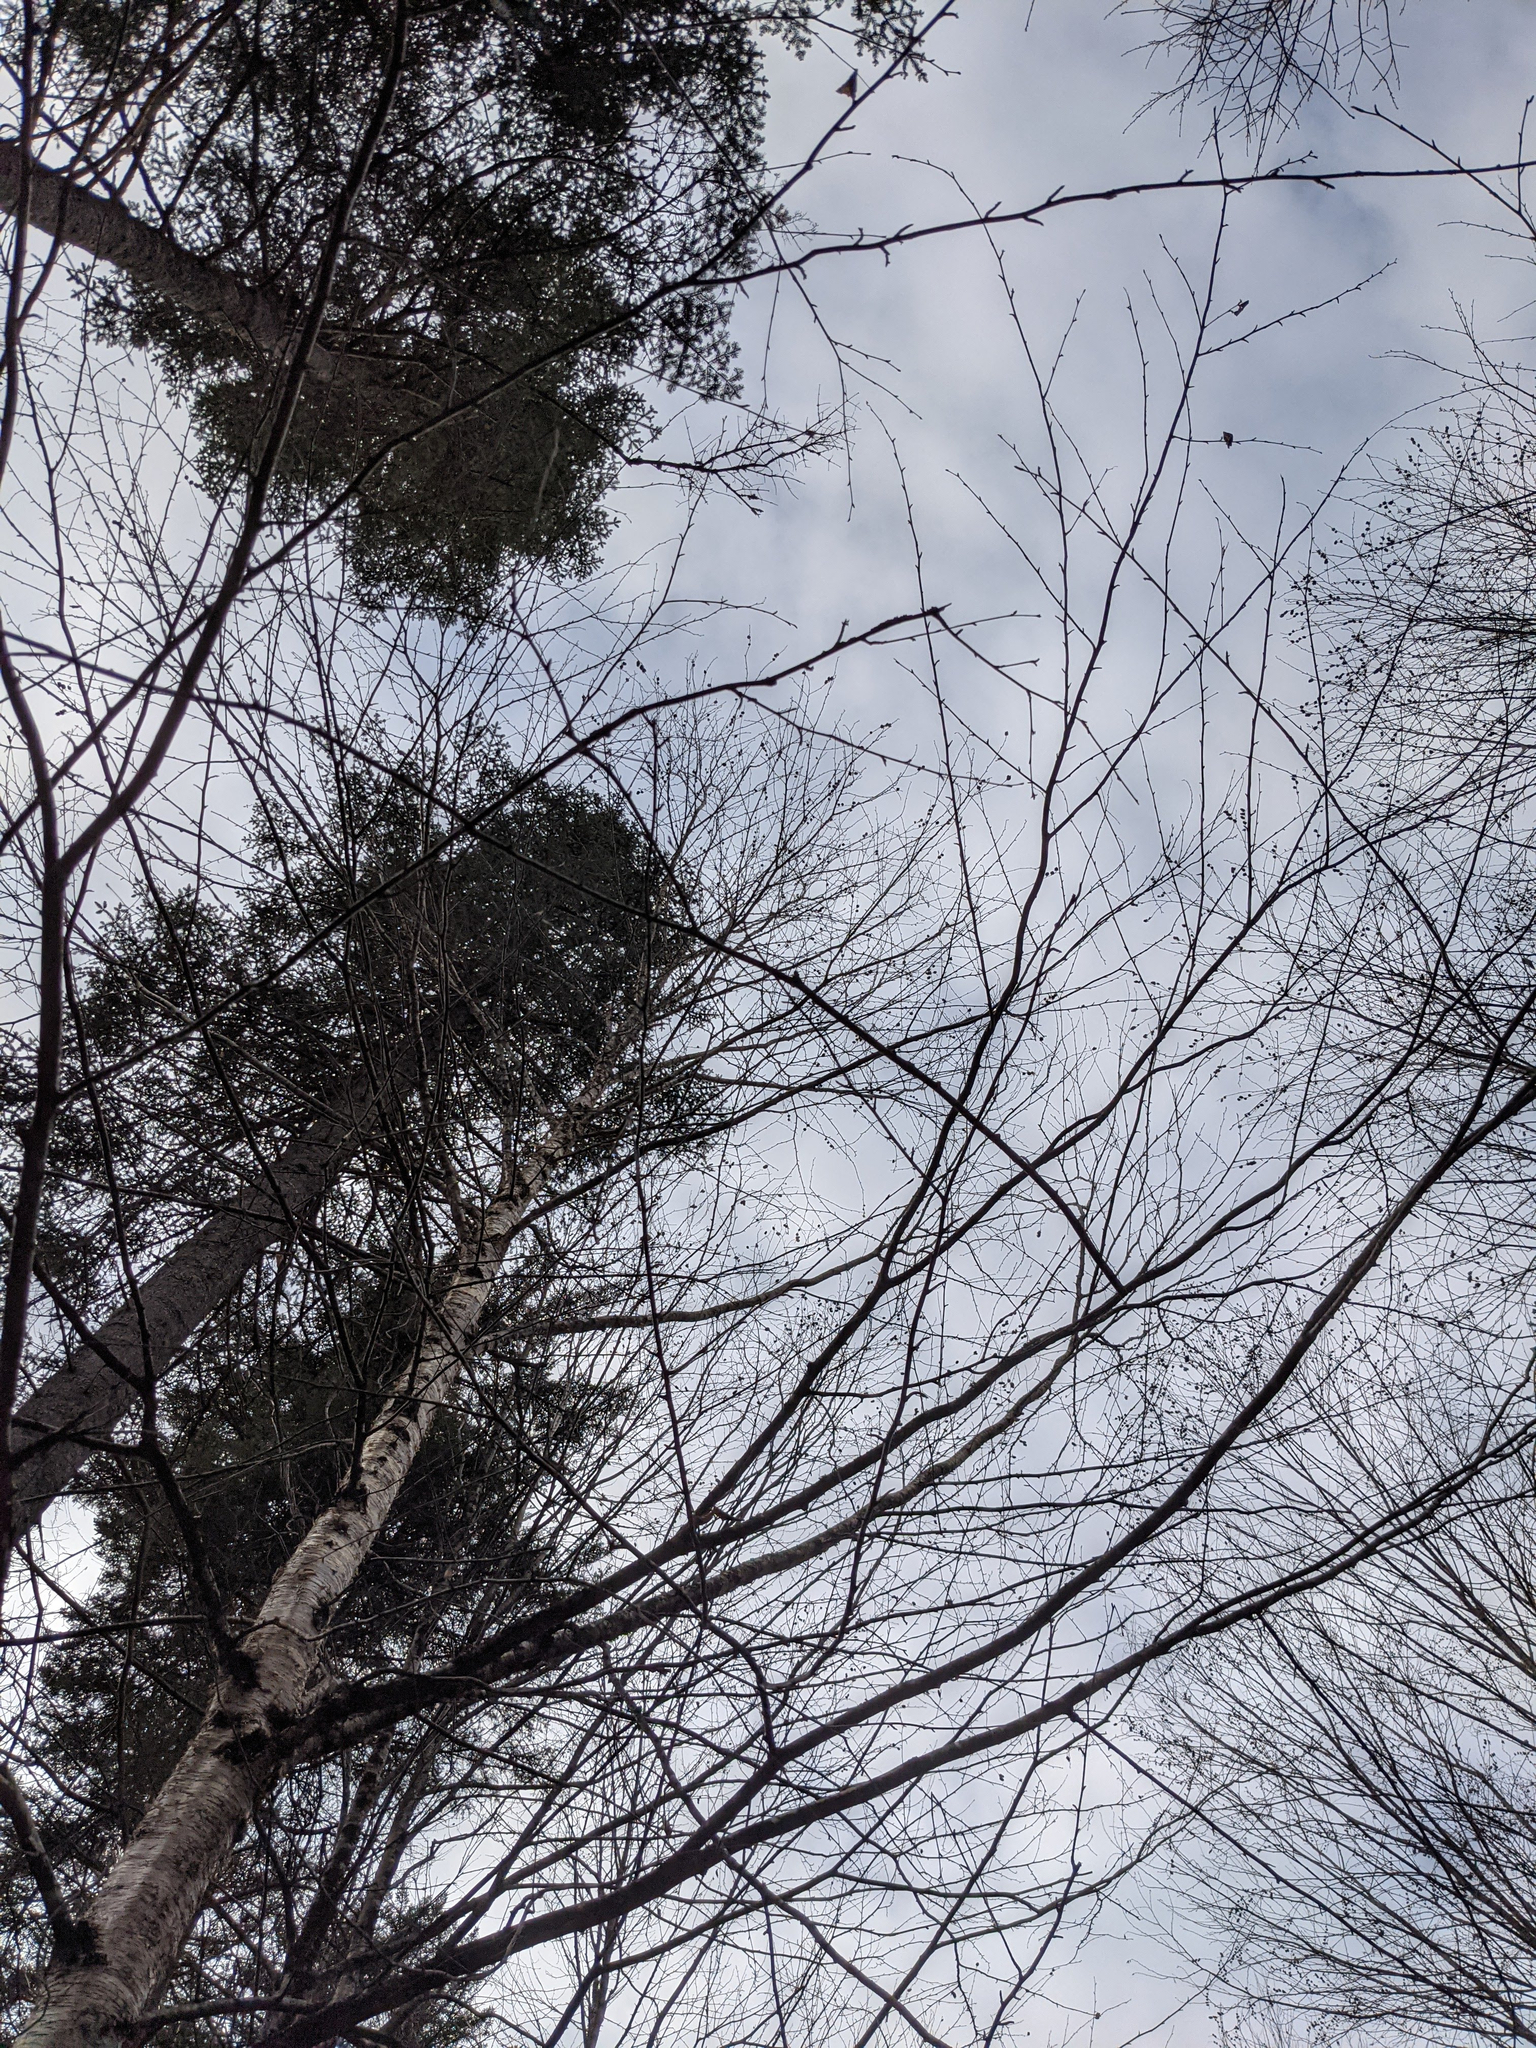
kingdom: Plantae
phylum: Tracheophyta
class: Magnoliopsida
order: Fagales
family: Betulaceae
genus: Betula
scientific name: Betula alleghaniensis
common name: Yellow birch
